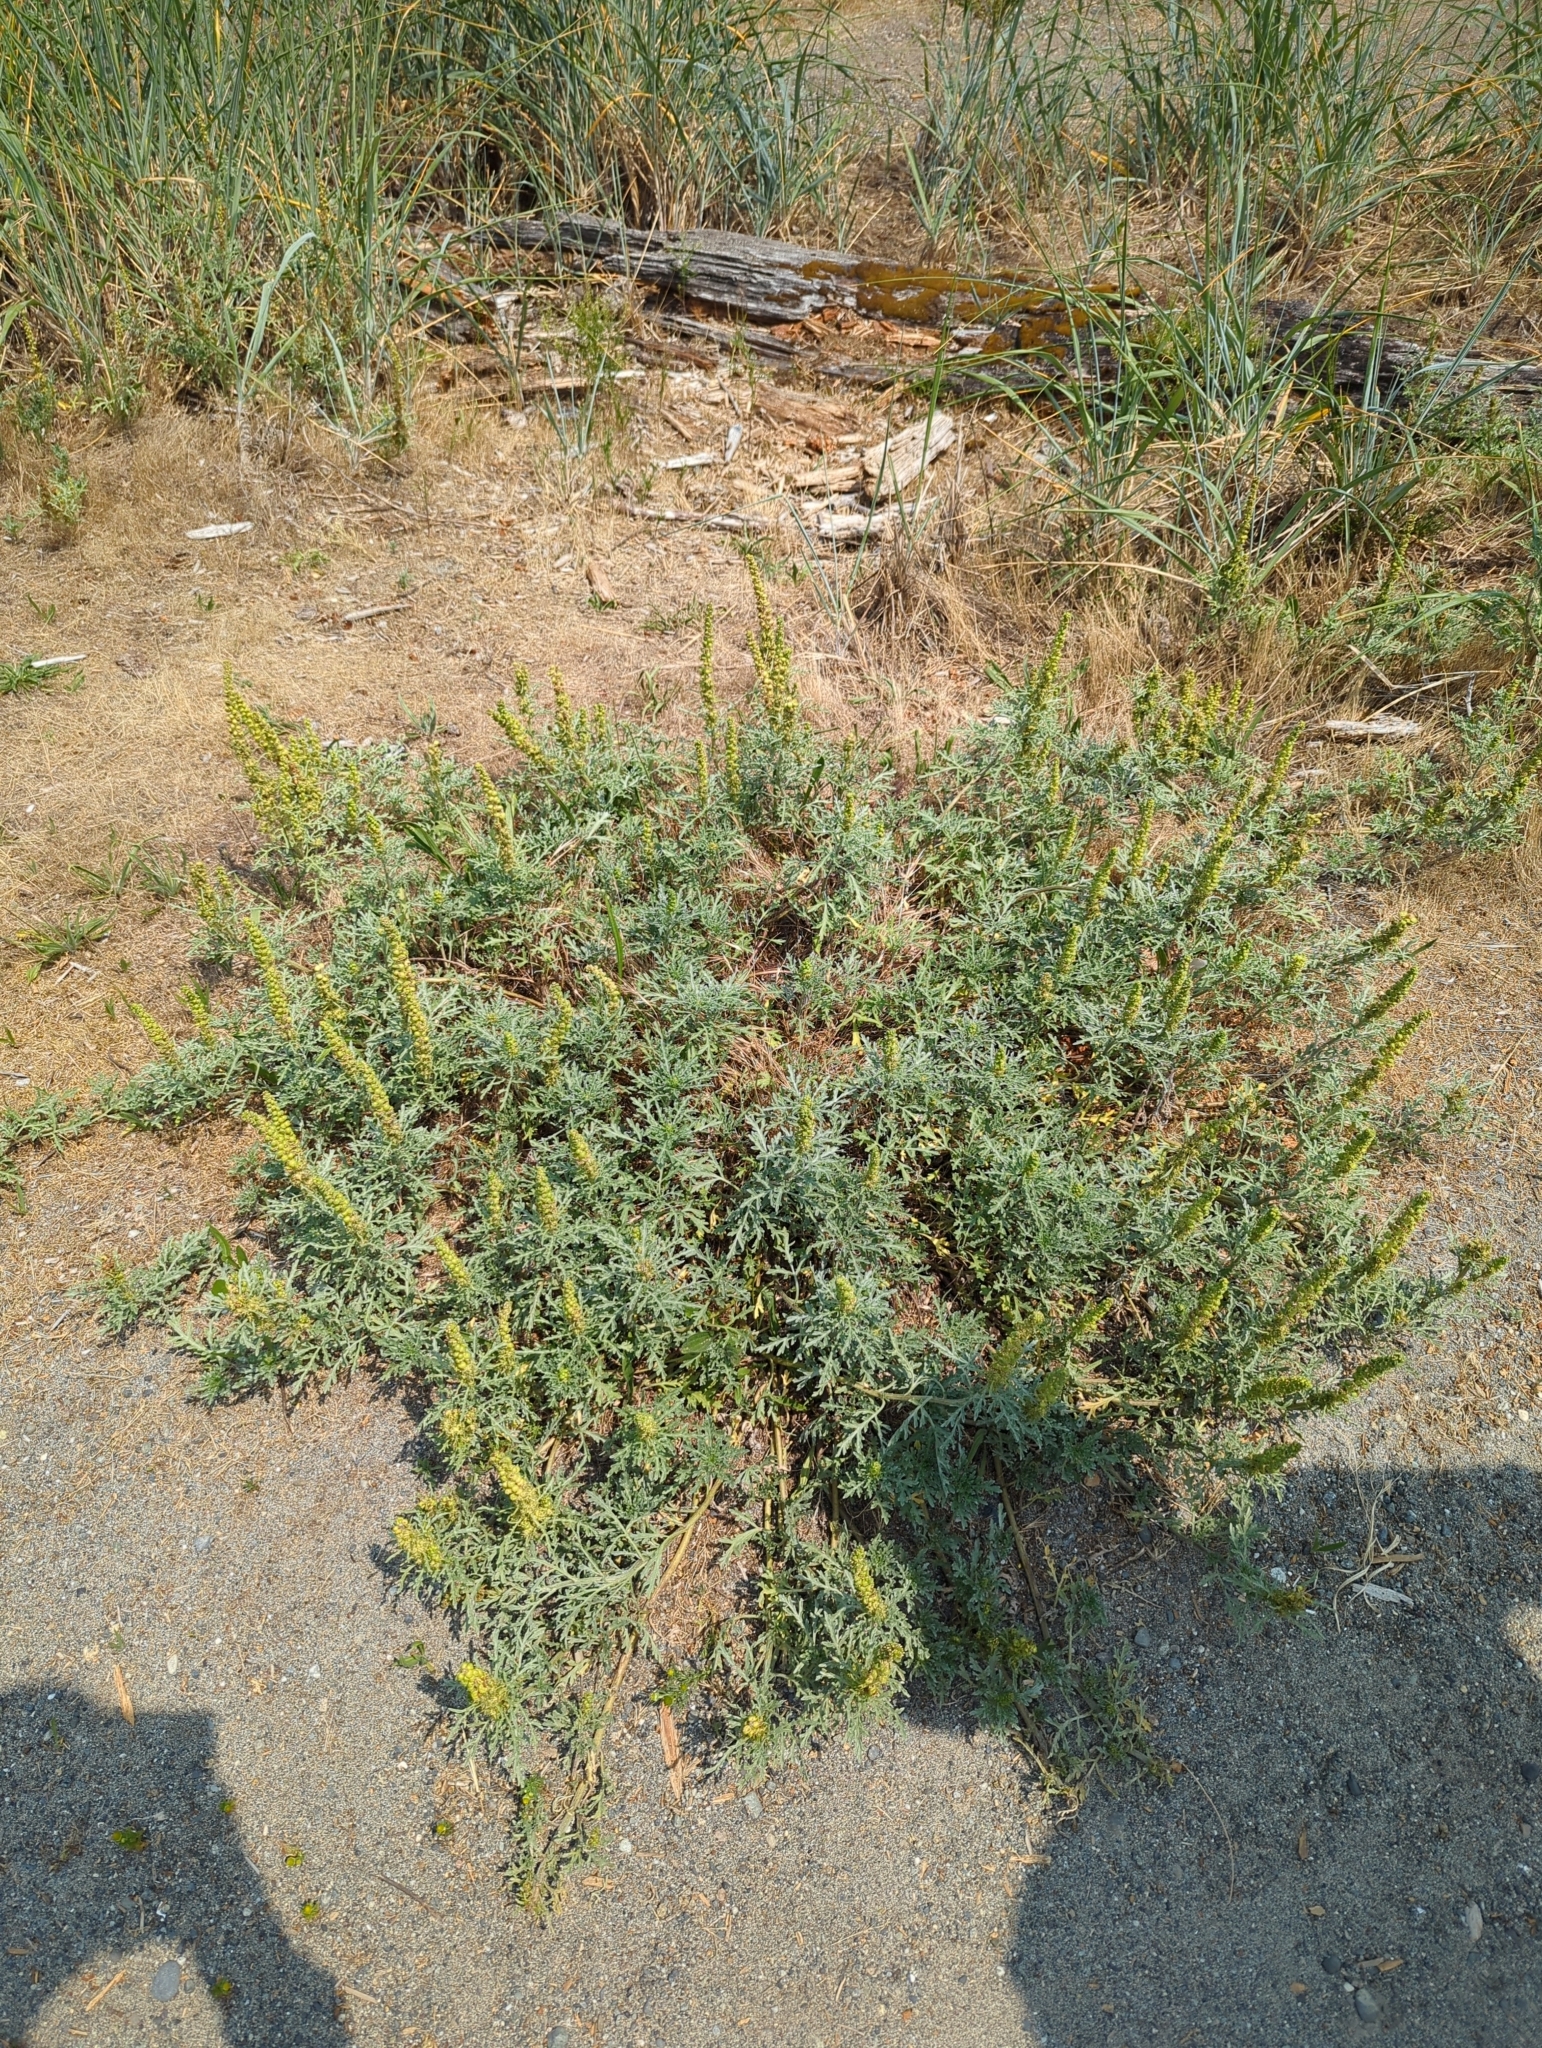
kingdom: Plantae
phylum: Tracheophyta
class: Magnoliopsida
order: Asterales
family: Asteraceae
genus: Ambrosia
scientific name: Ambrosia chamissonis
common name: Beachbur
